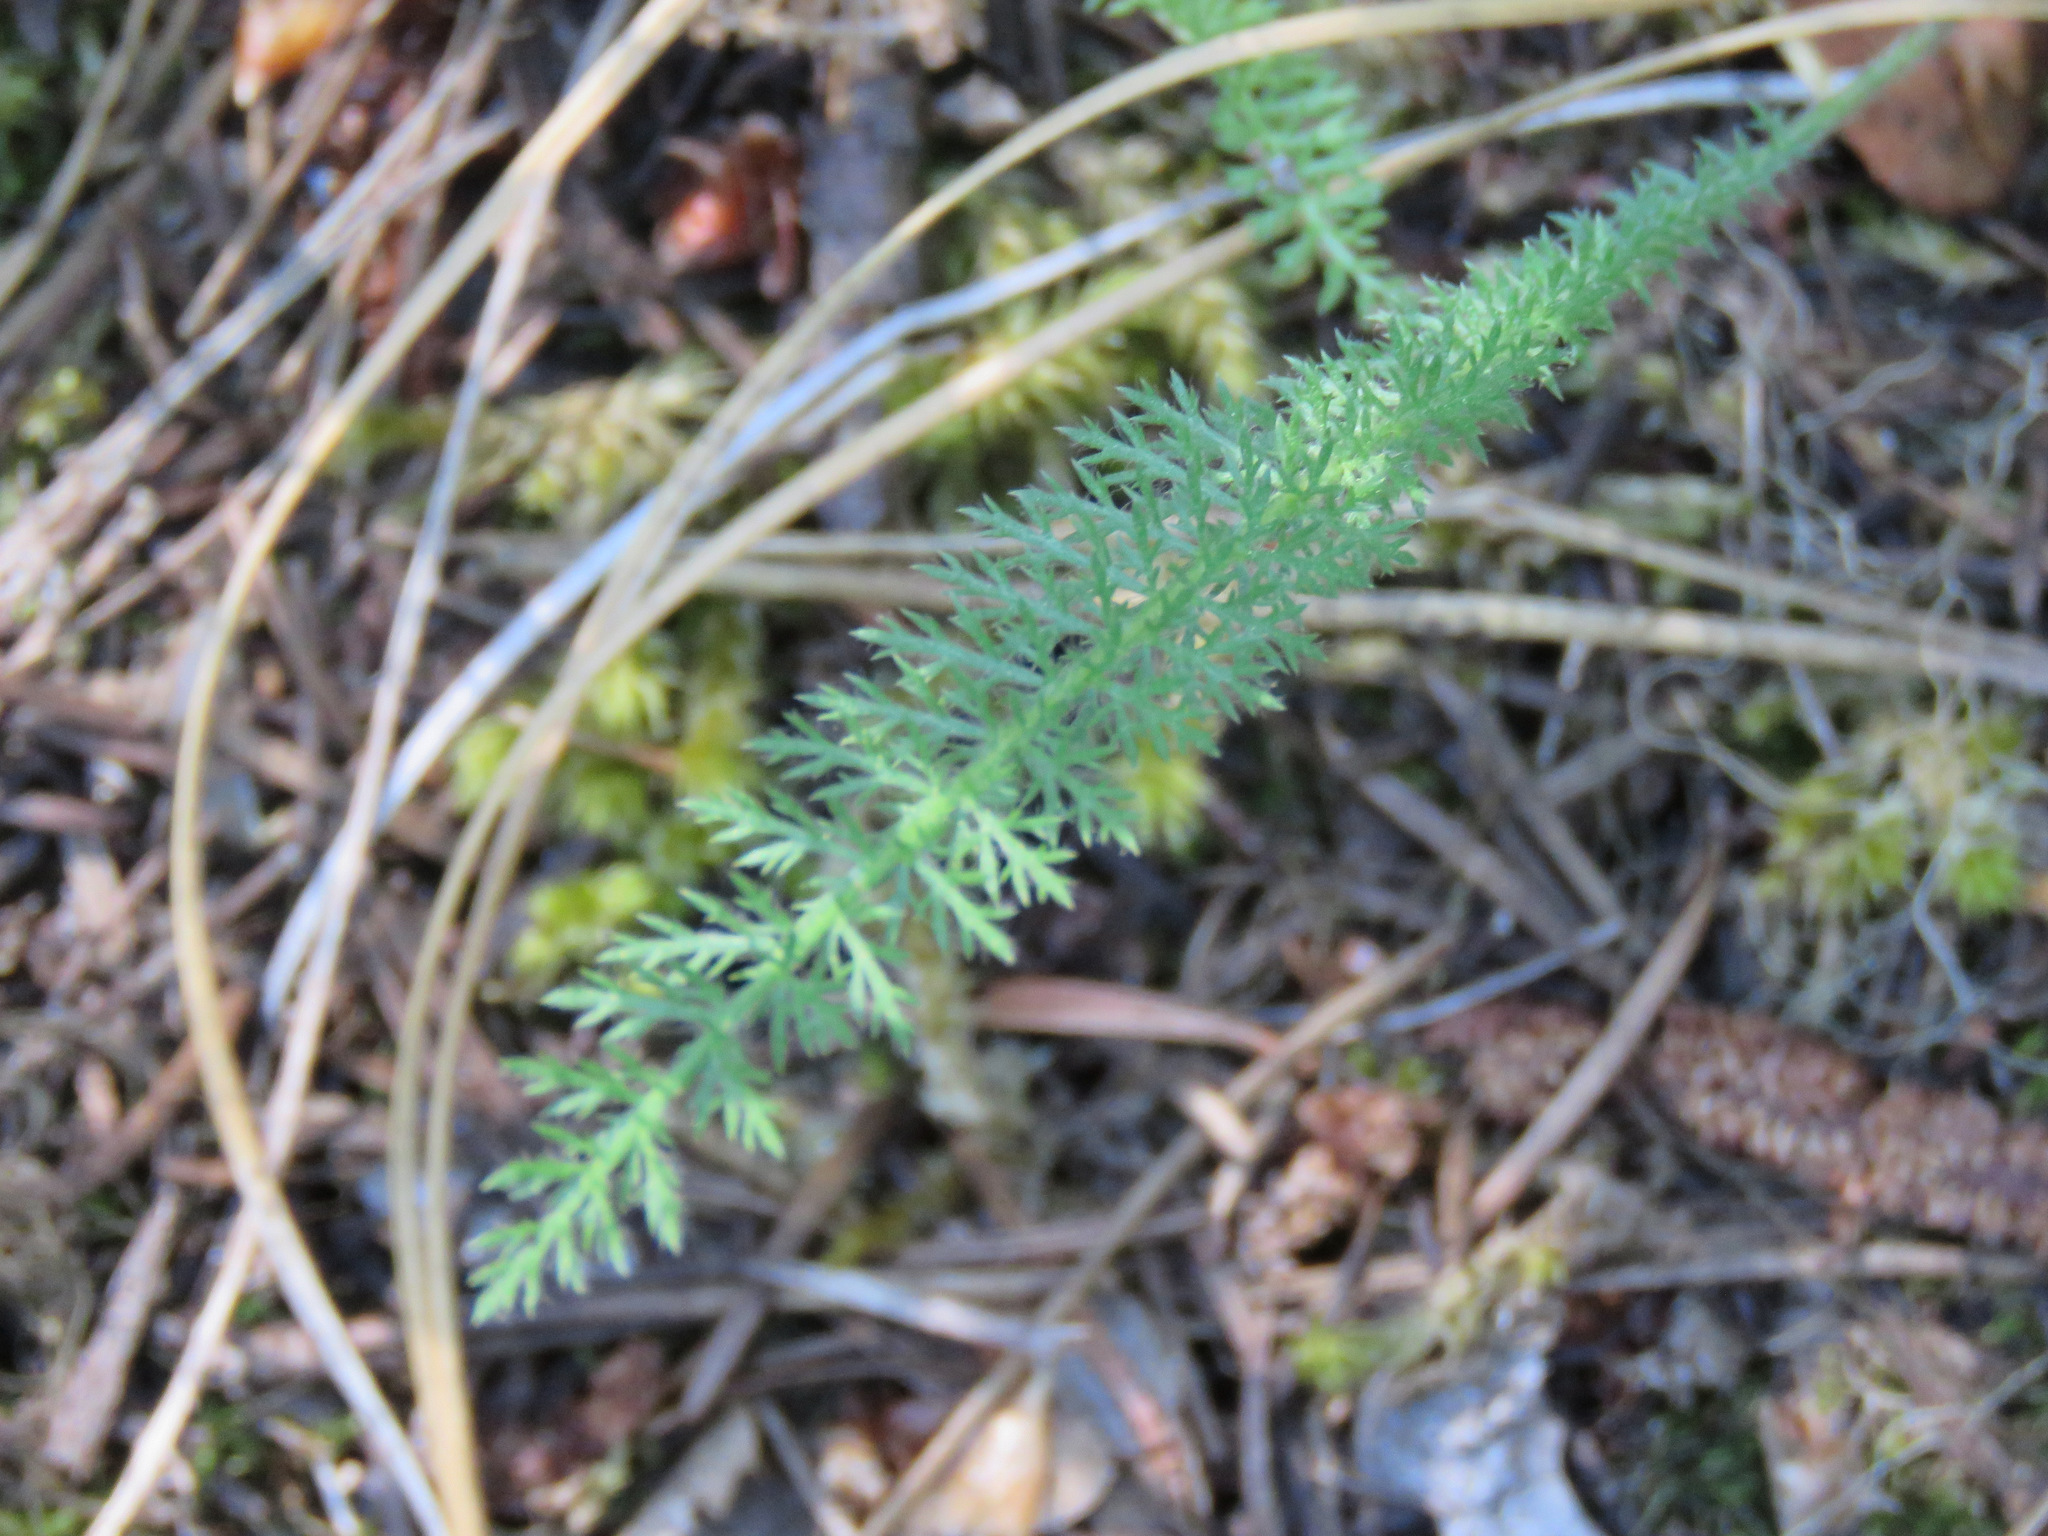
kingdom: Plantae
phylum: Tracheophyta
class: Magnoliopsida
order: Asterales
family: Asteraceae
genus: Achillea
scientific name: Achillea millefolium
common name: Yarrow
